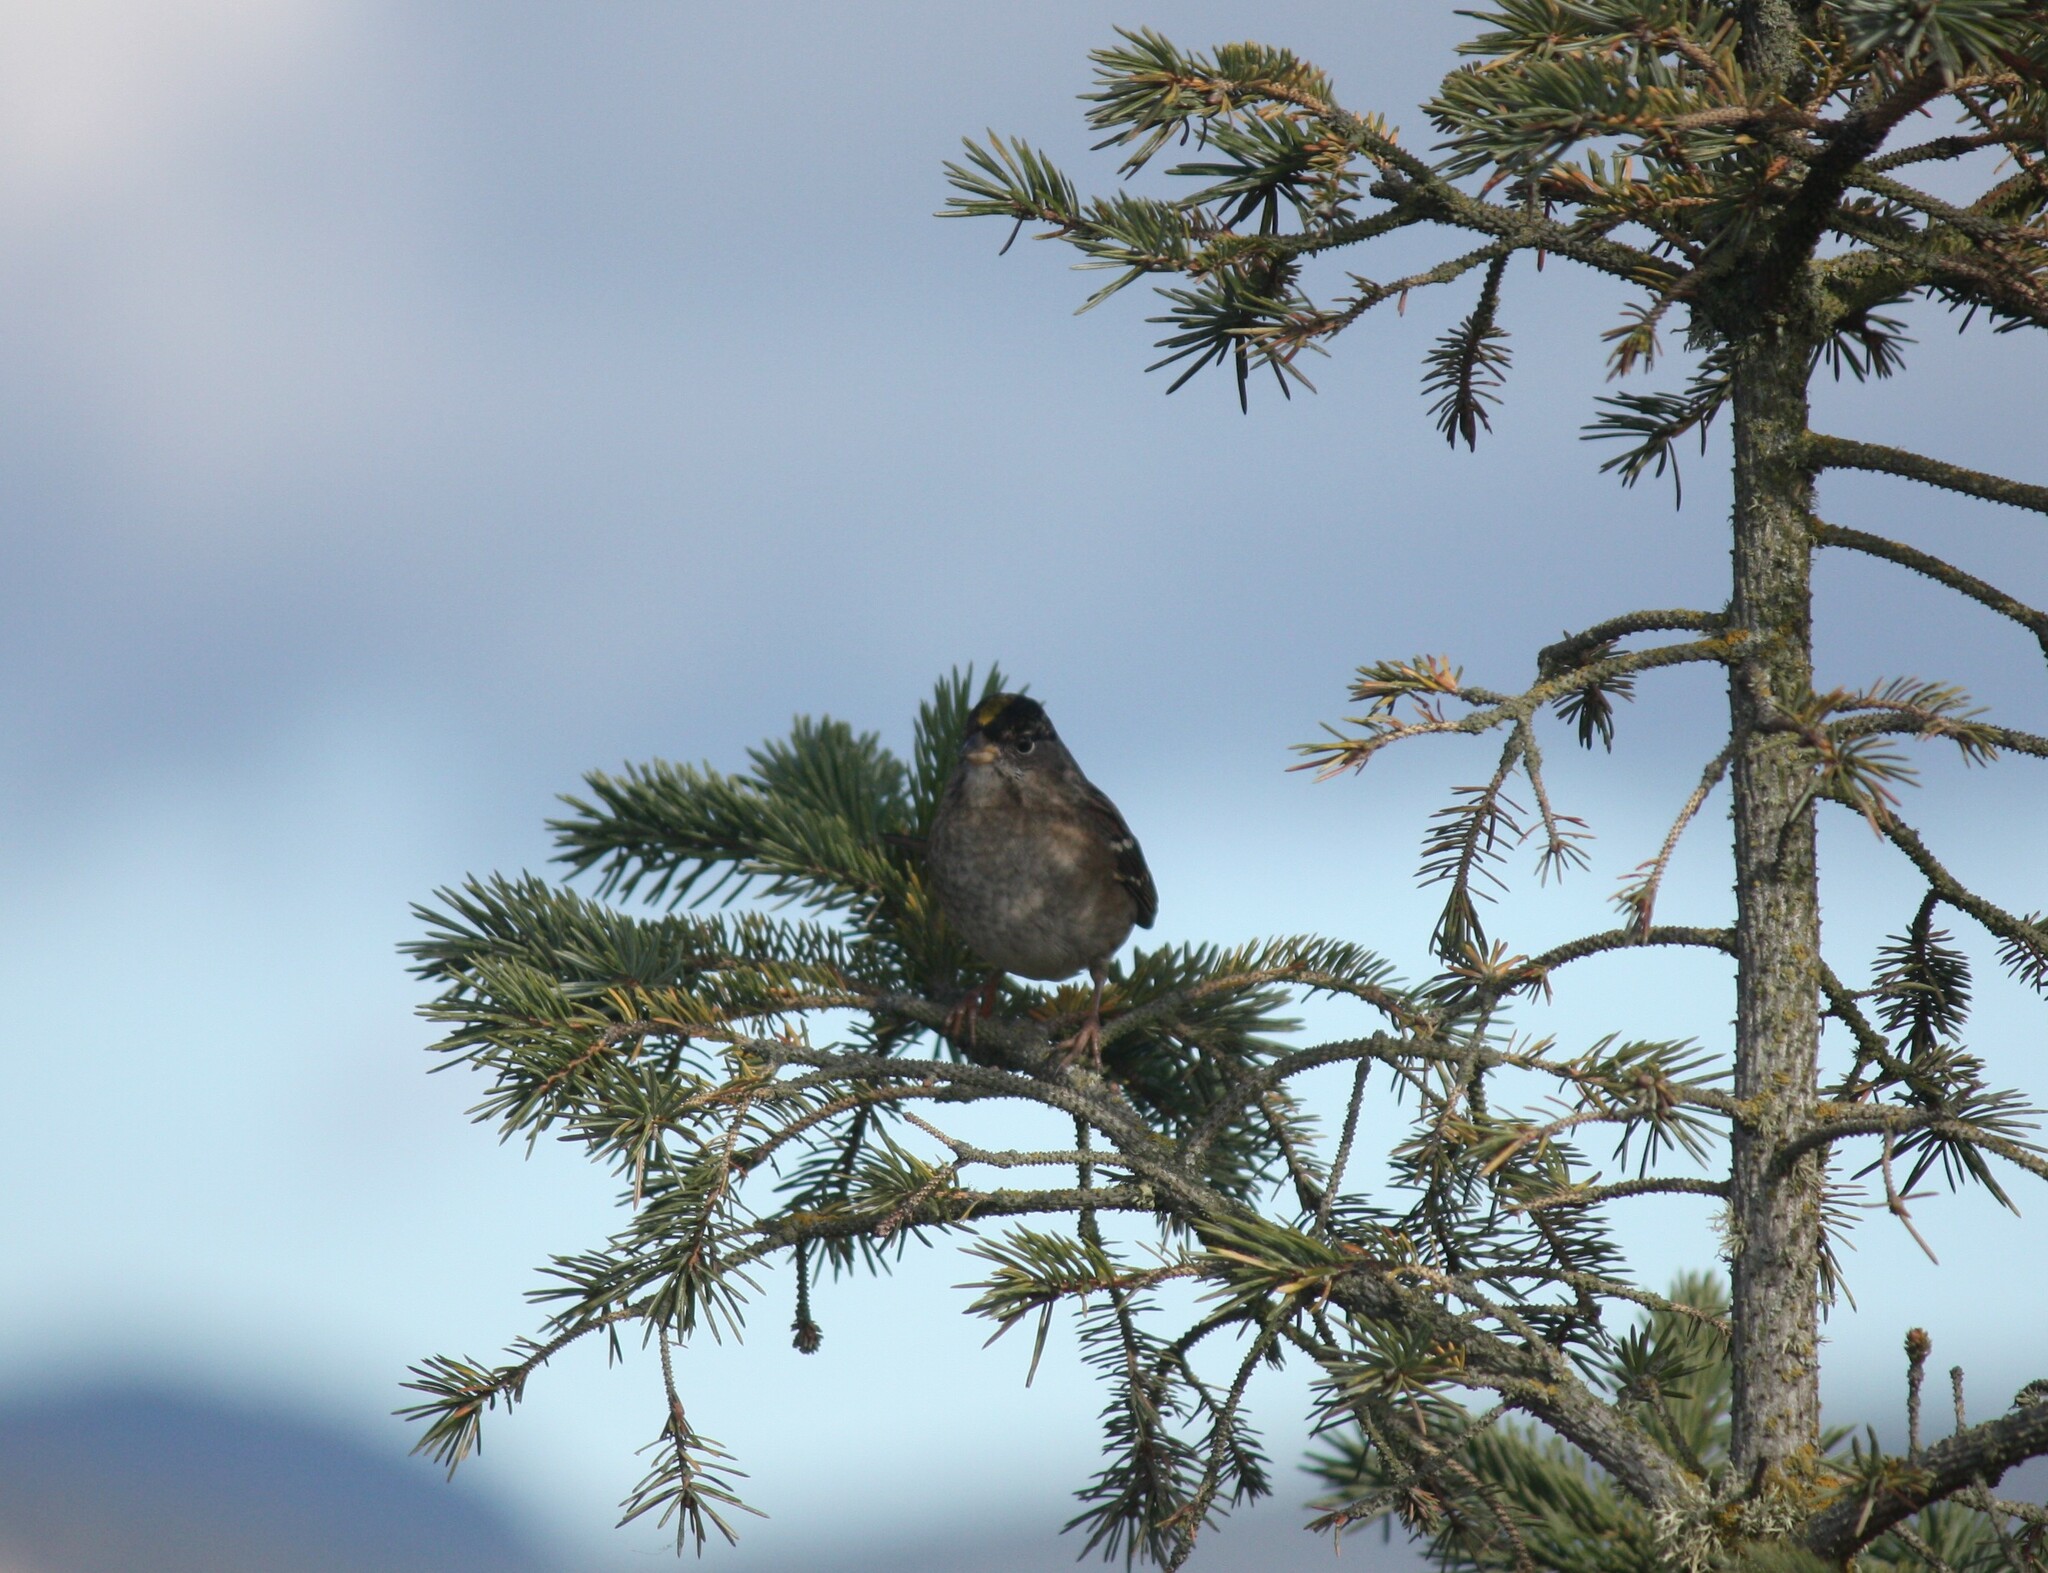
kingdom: Animalia
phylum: Chordata
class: Aves
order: Passeriformes
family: Passerellidae
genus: Zonotrichia
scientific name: Zonotrichia atricapilla
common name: Golden-crowned sparrow
